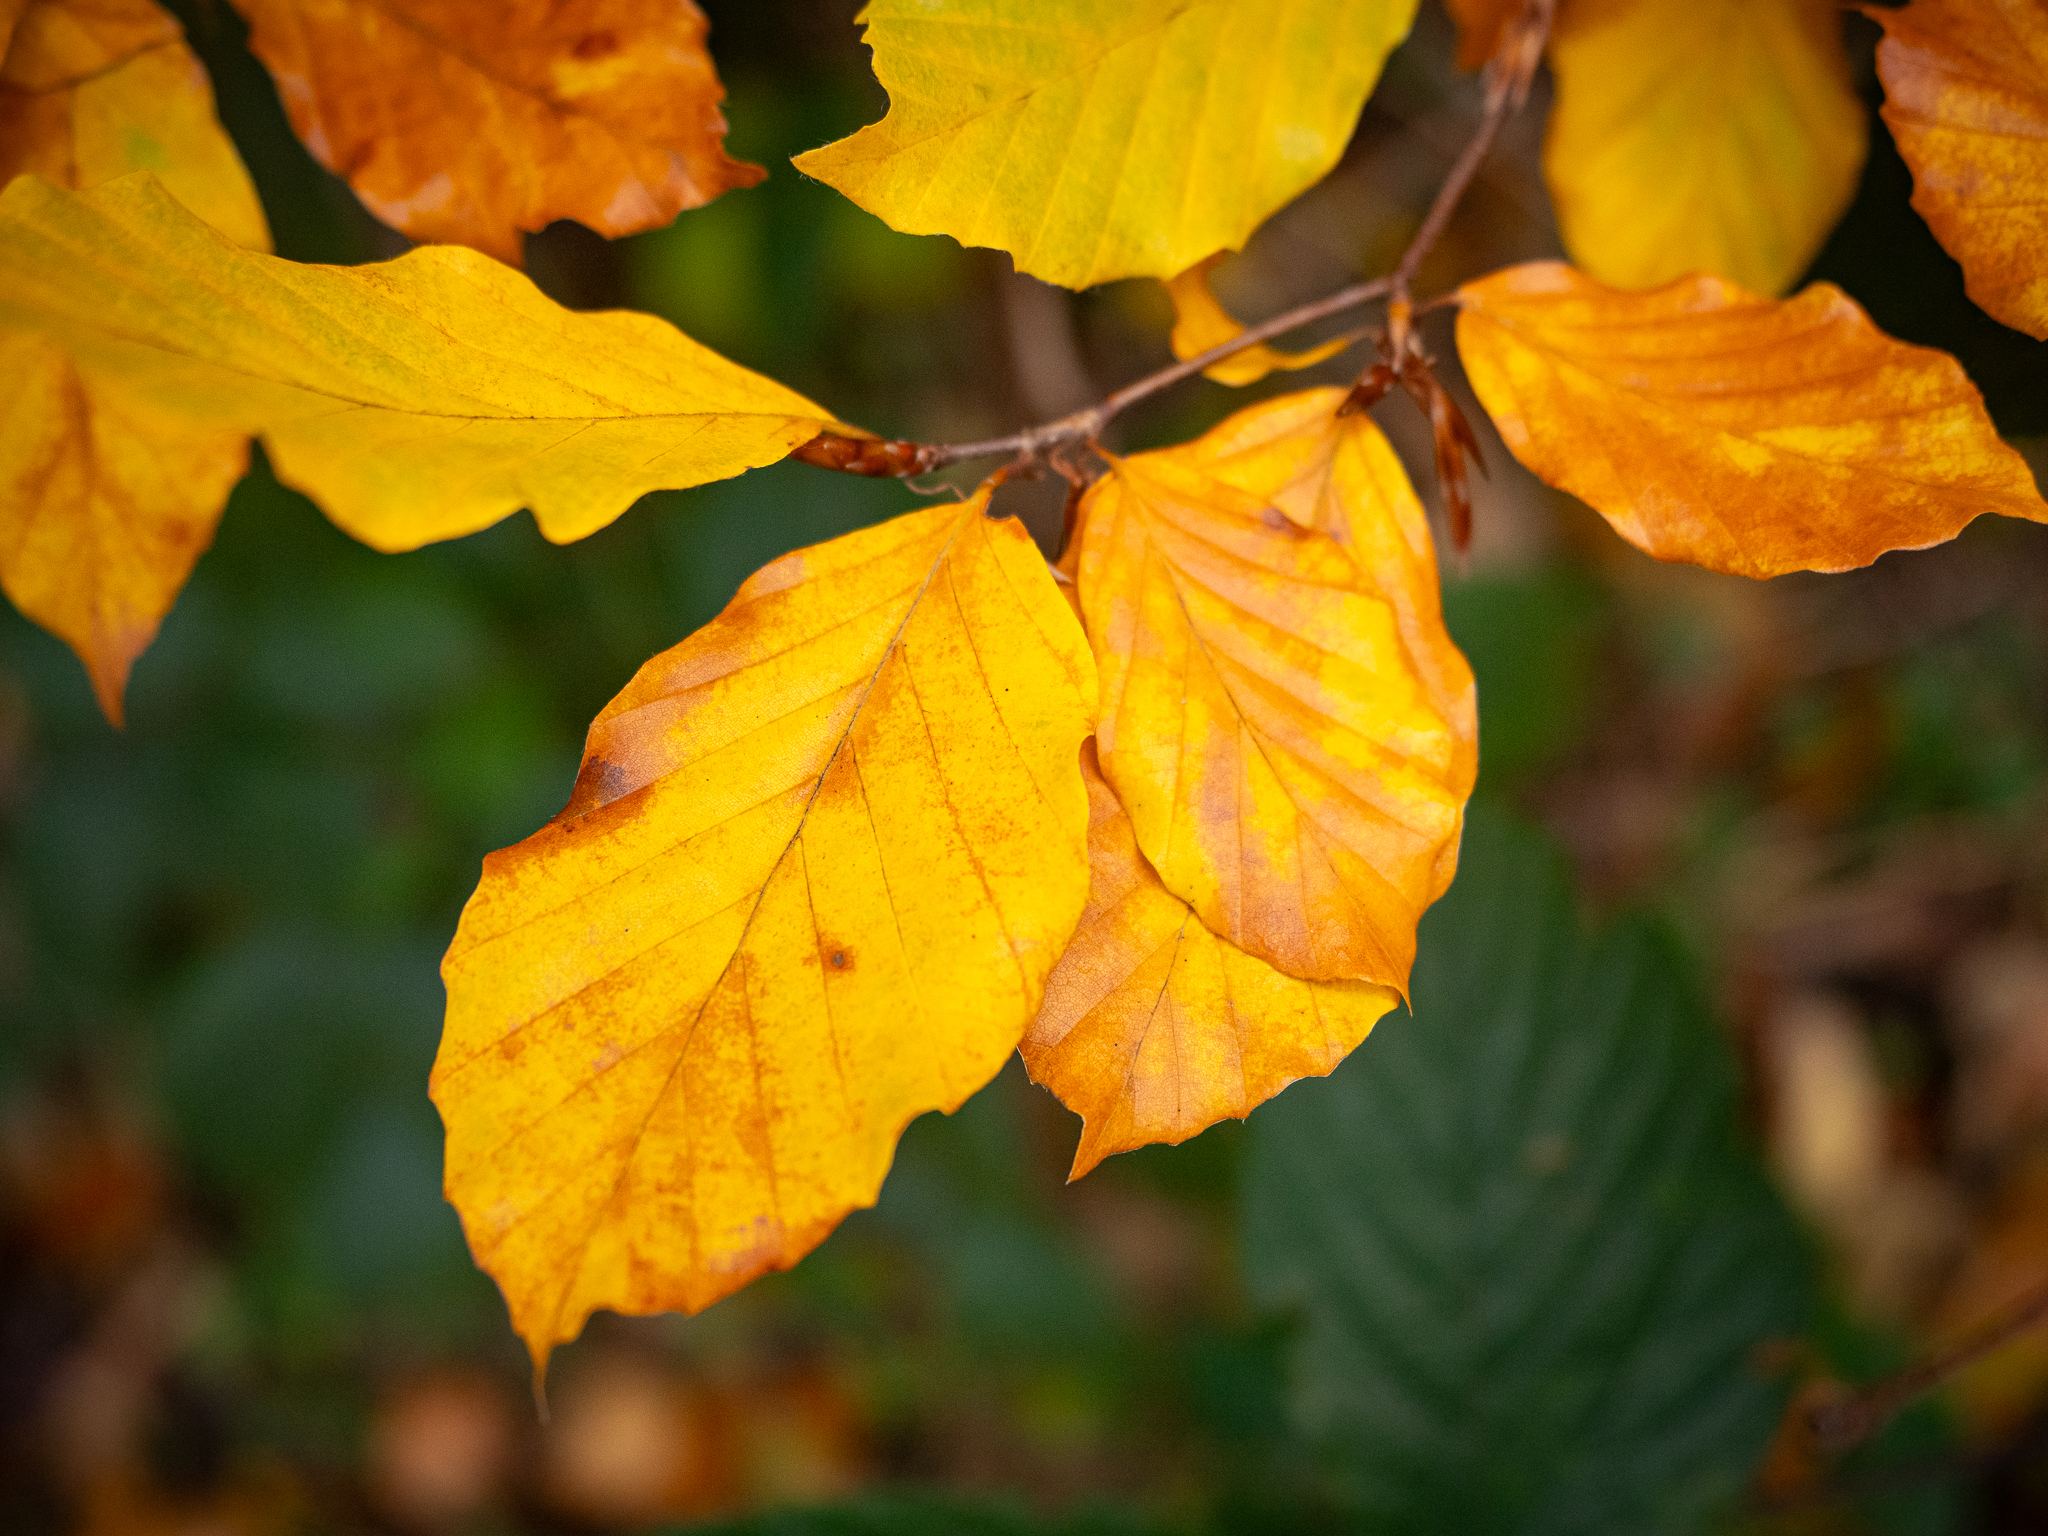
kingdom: Plantae
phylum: Tracheophyta
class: Magnoliopsida
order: Fagales
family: Fagaceae
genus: Fagus
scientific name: Fagus sylvatica
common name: Beech
